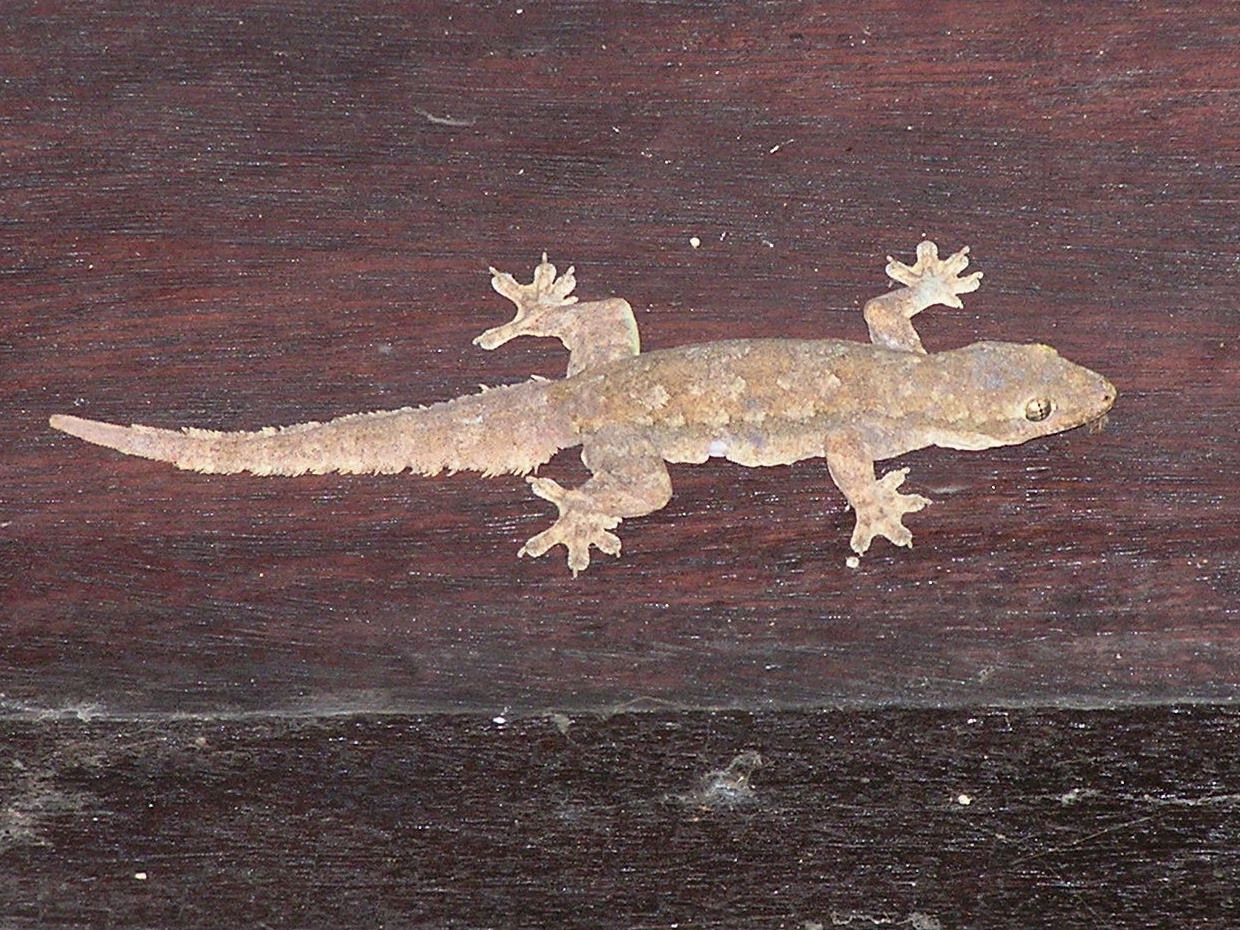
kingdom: Animalia
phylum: Chordata
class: Squamata
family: Gekkonidae
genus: Hemidactylus
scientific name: Hemidactylus platyurus
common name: Flat-tailed house gecko
